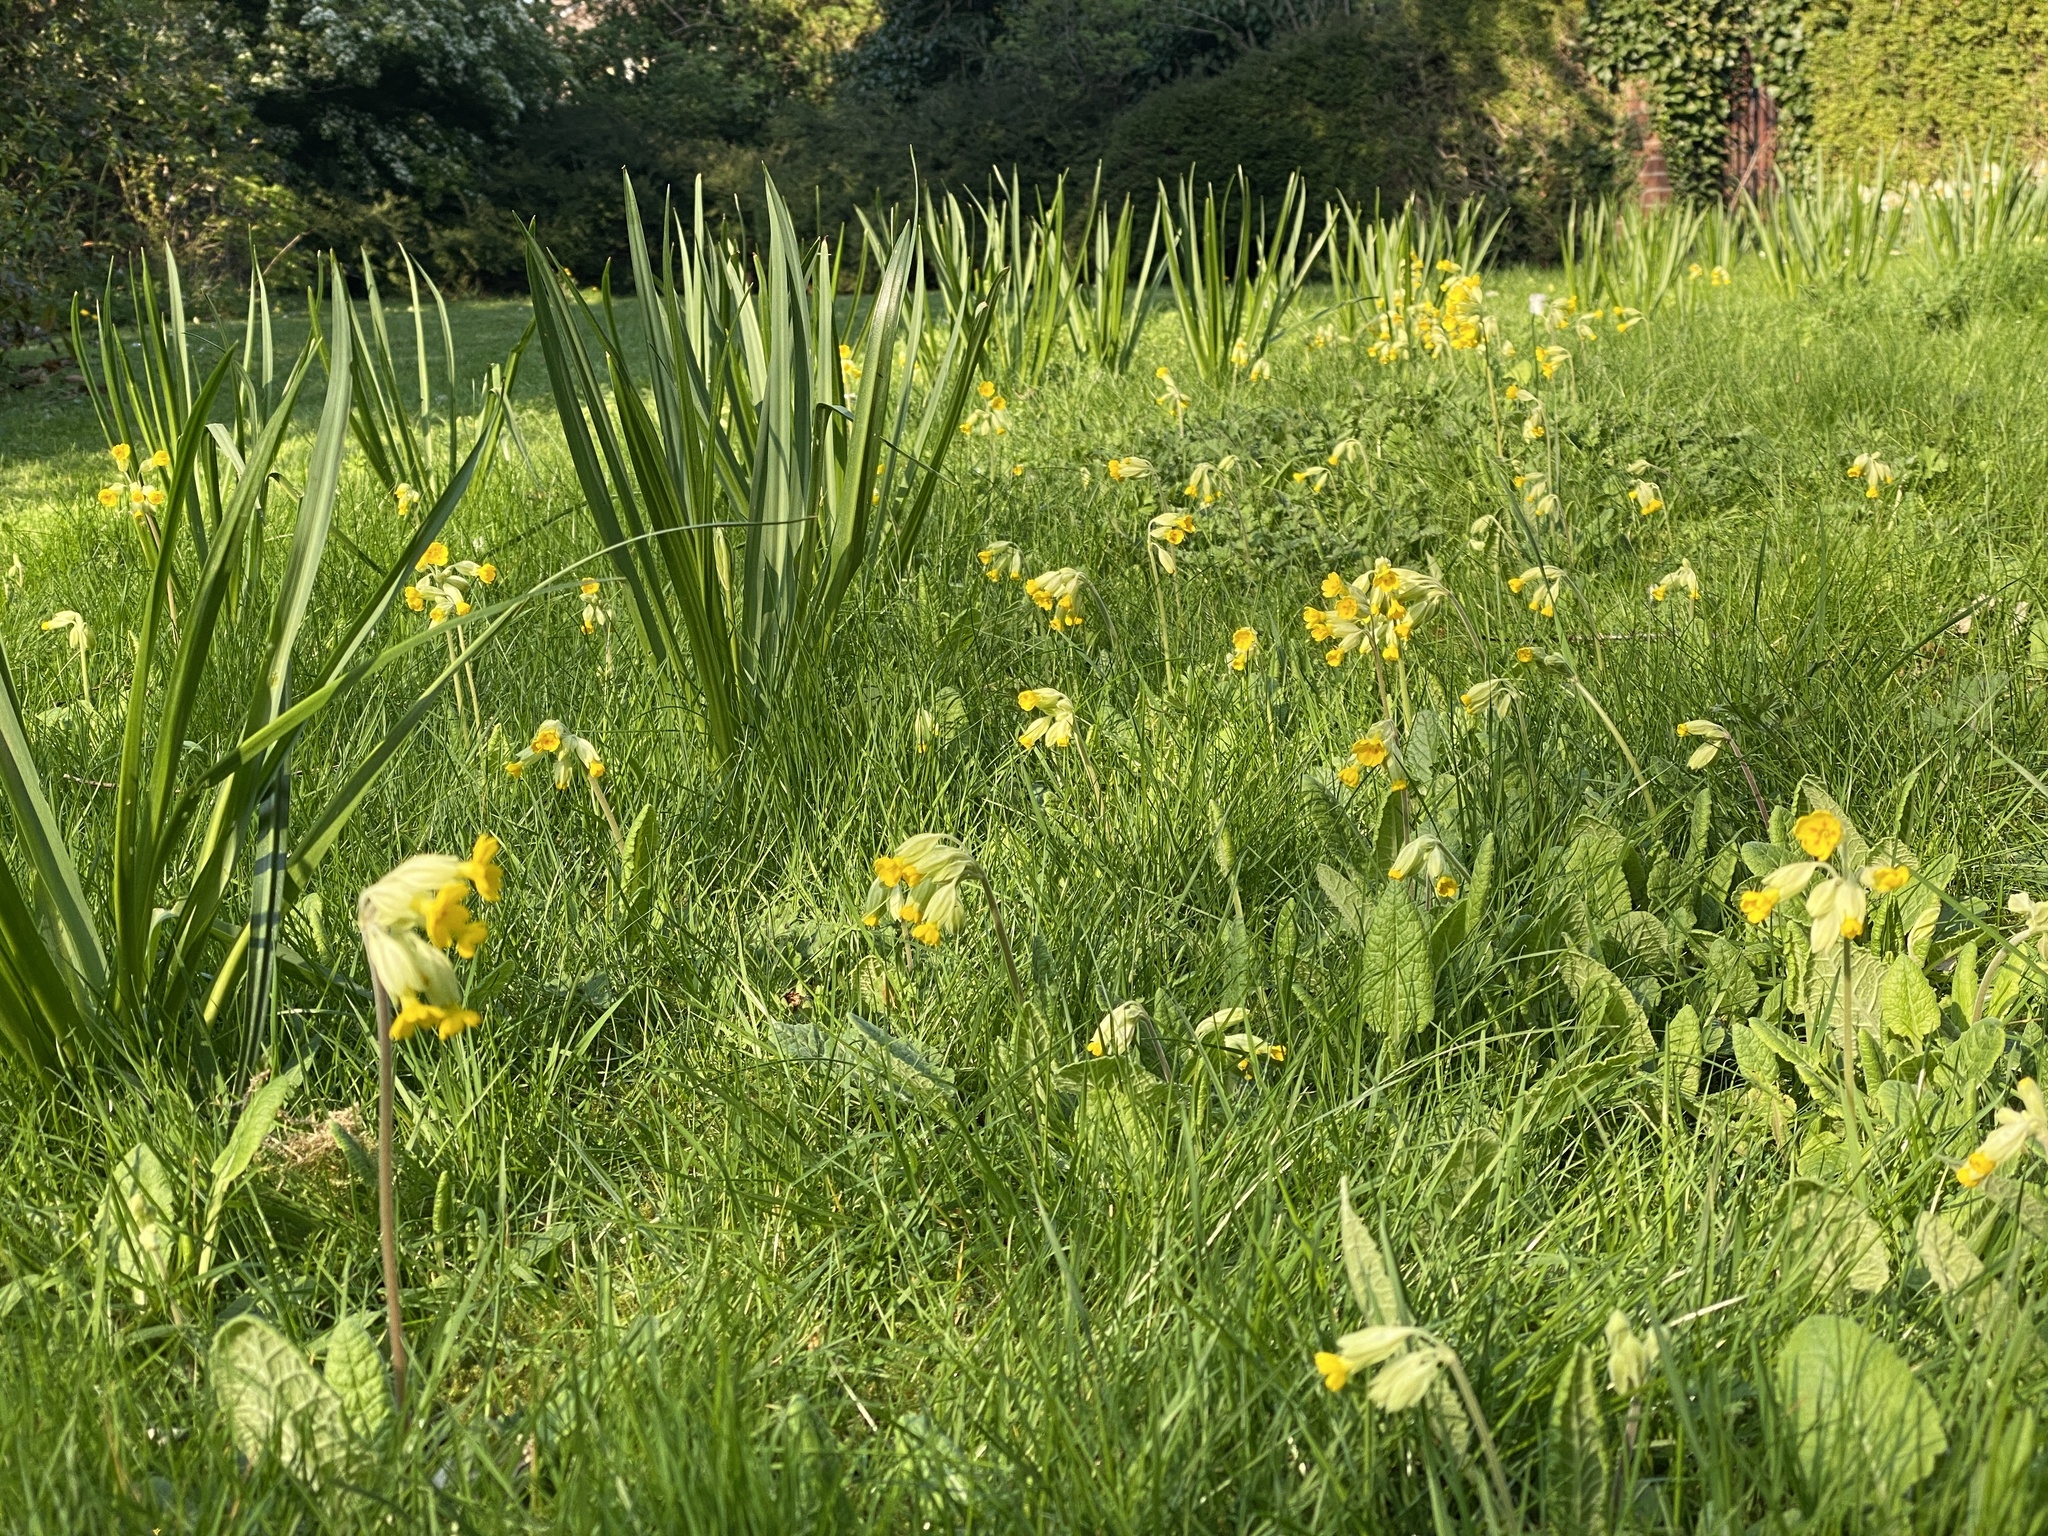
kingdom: Plantae
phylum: Tracheophyta
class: Magnoliopsida
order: Ericales
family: Primulaceae
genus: Primula
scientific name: Primula veris
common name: Cowslip
